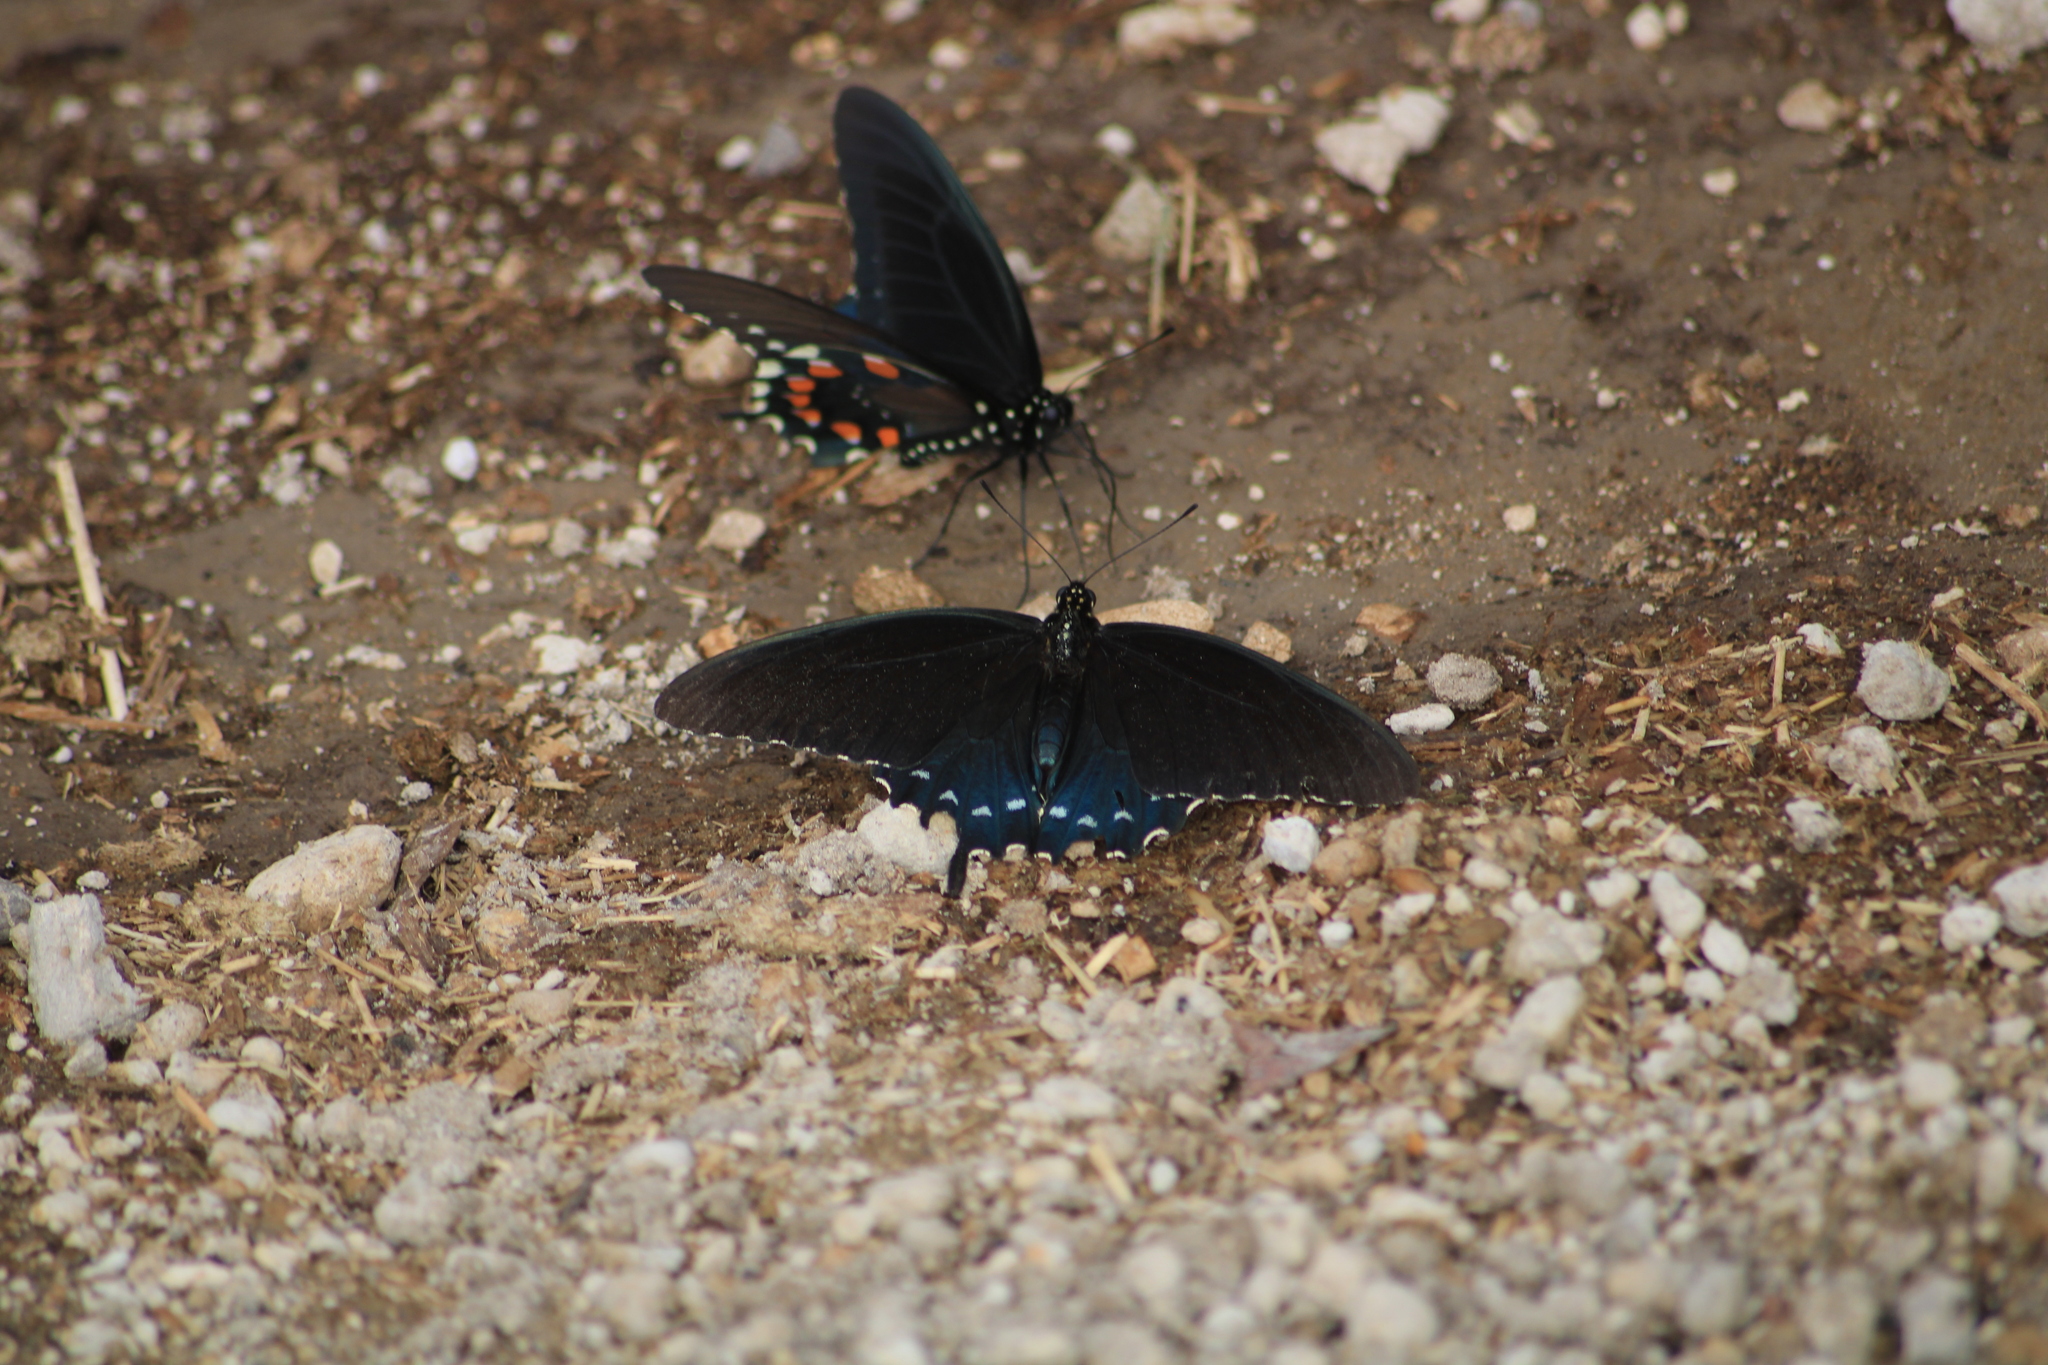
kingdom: Animalia
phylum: Arthropoda
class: Insecta
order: Lepidoptera
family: Papilionidae
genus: Battus
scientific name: Battus philenor
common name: Pipevine swallowtail
